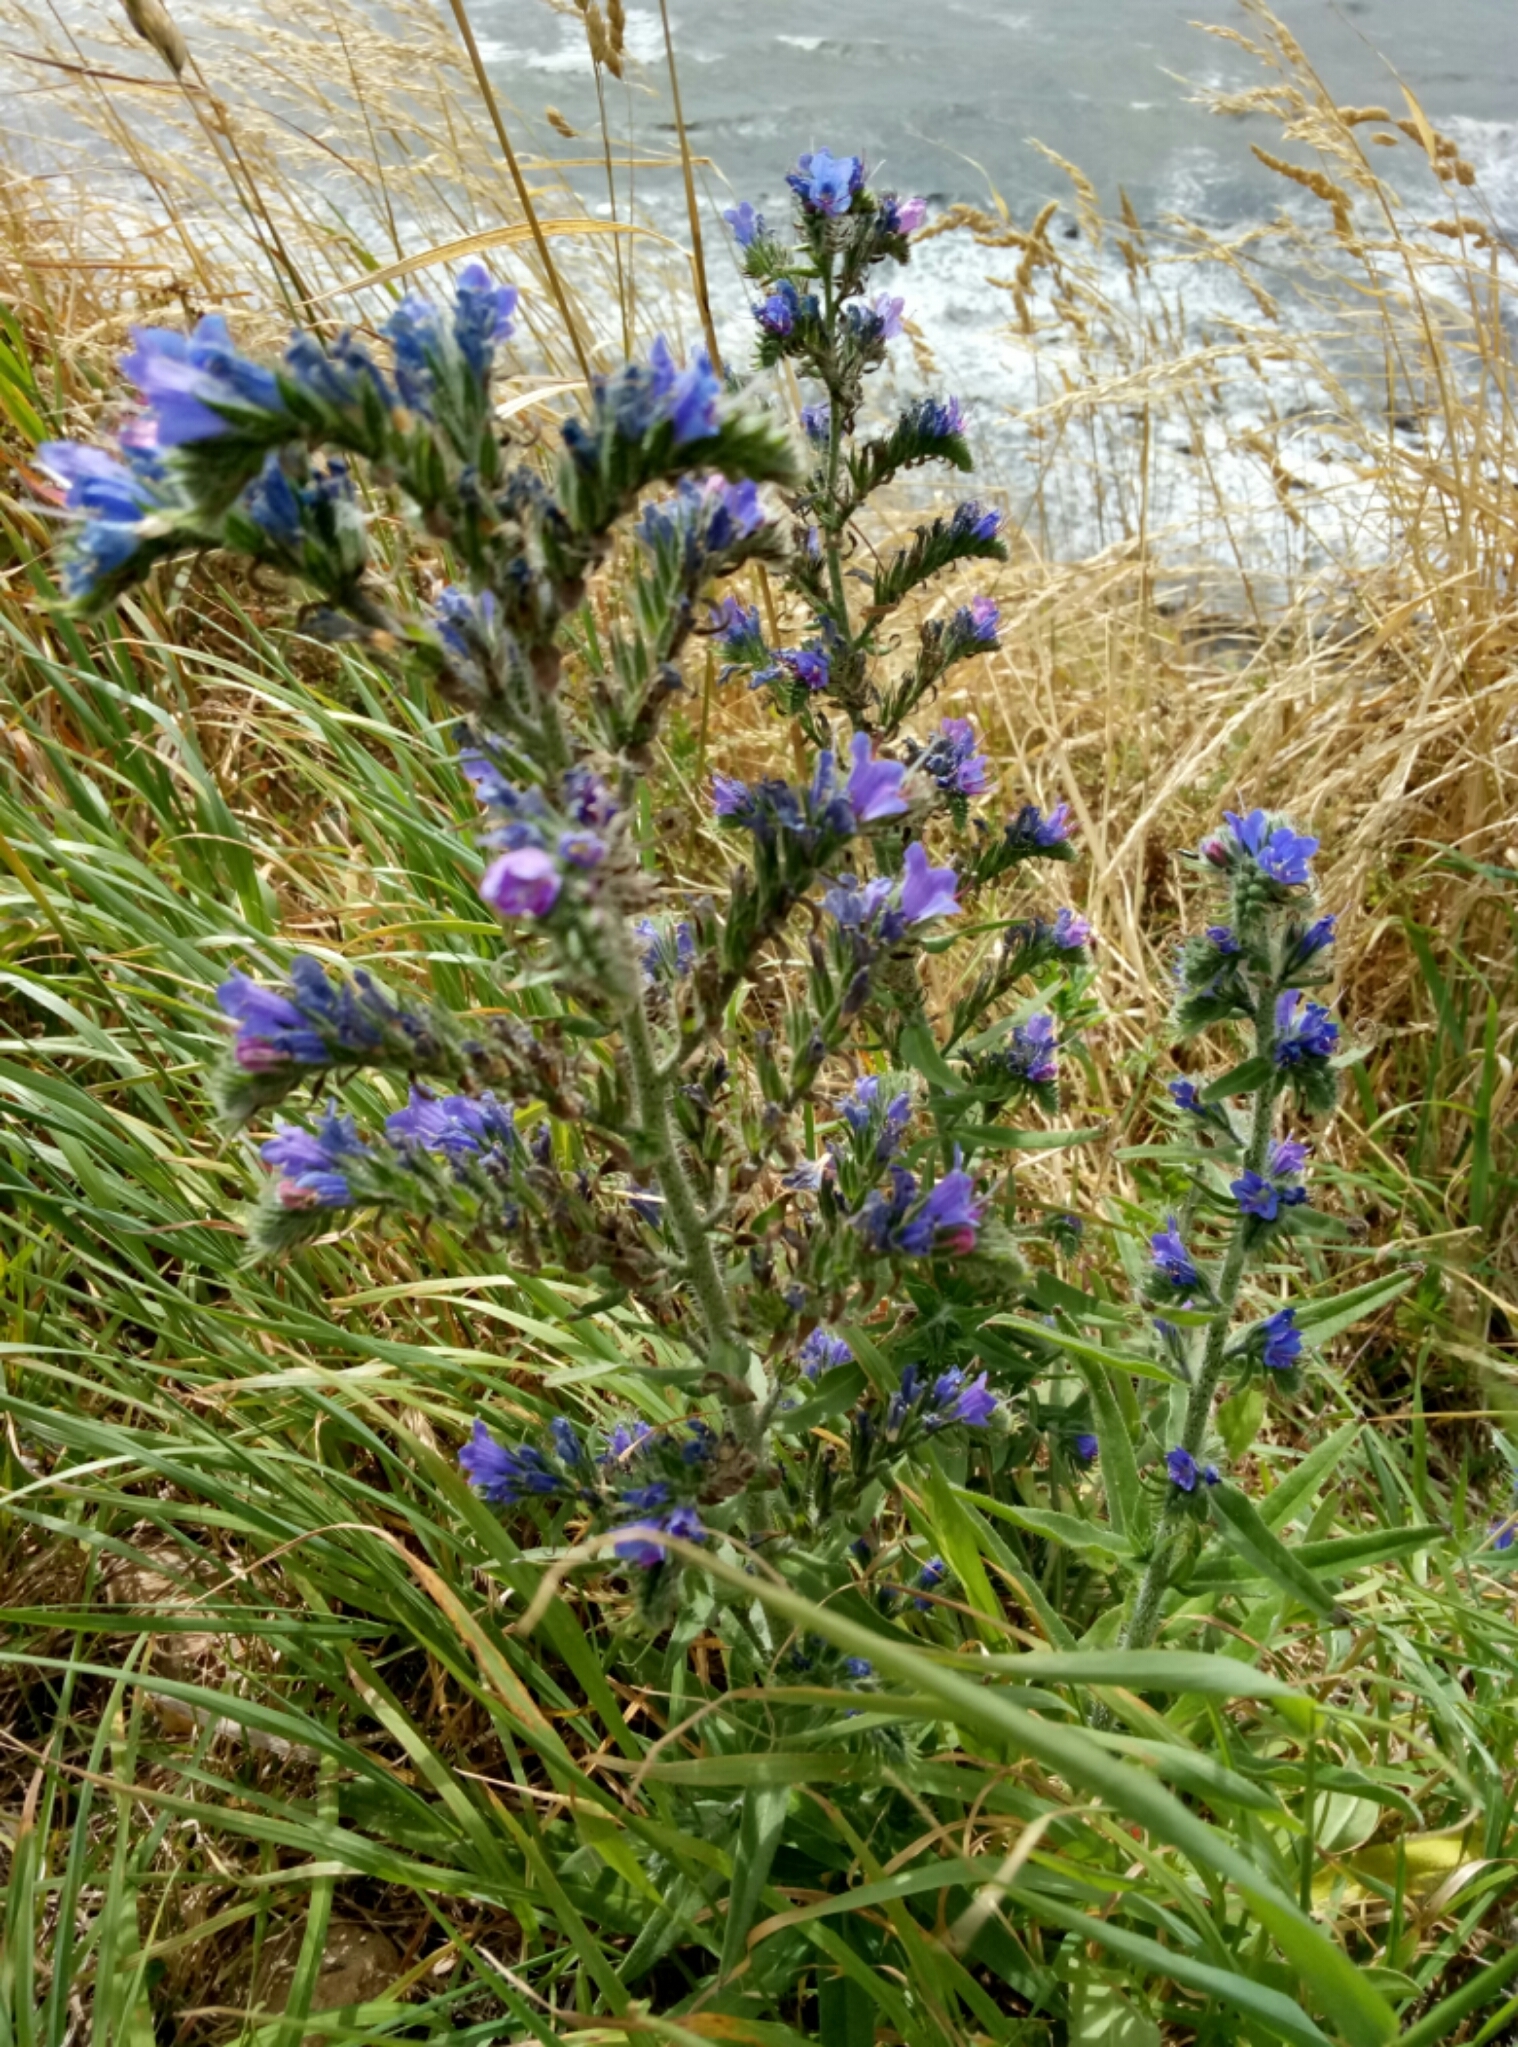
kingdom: Plantae
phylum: Tracheophyta
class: Magnoliopsida
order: Boraginales
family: Boraginaceae
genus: Echium
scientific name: Echium vulgare
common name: Common viper's bugloss
